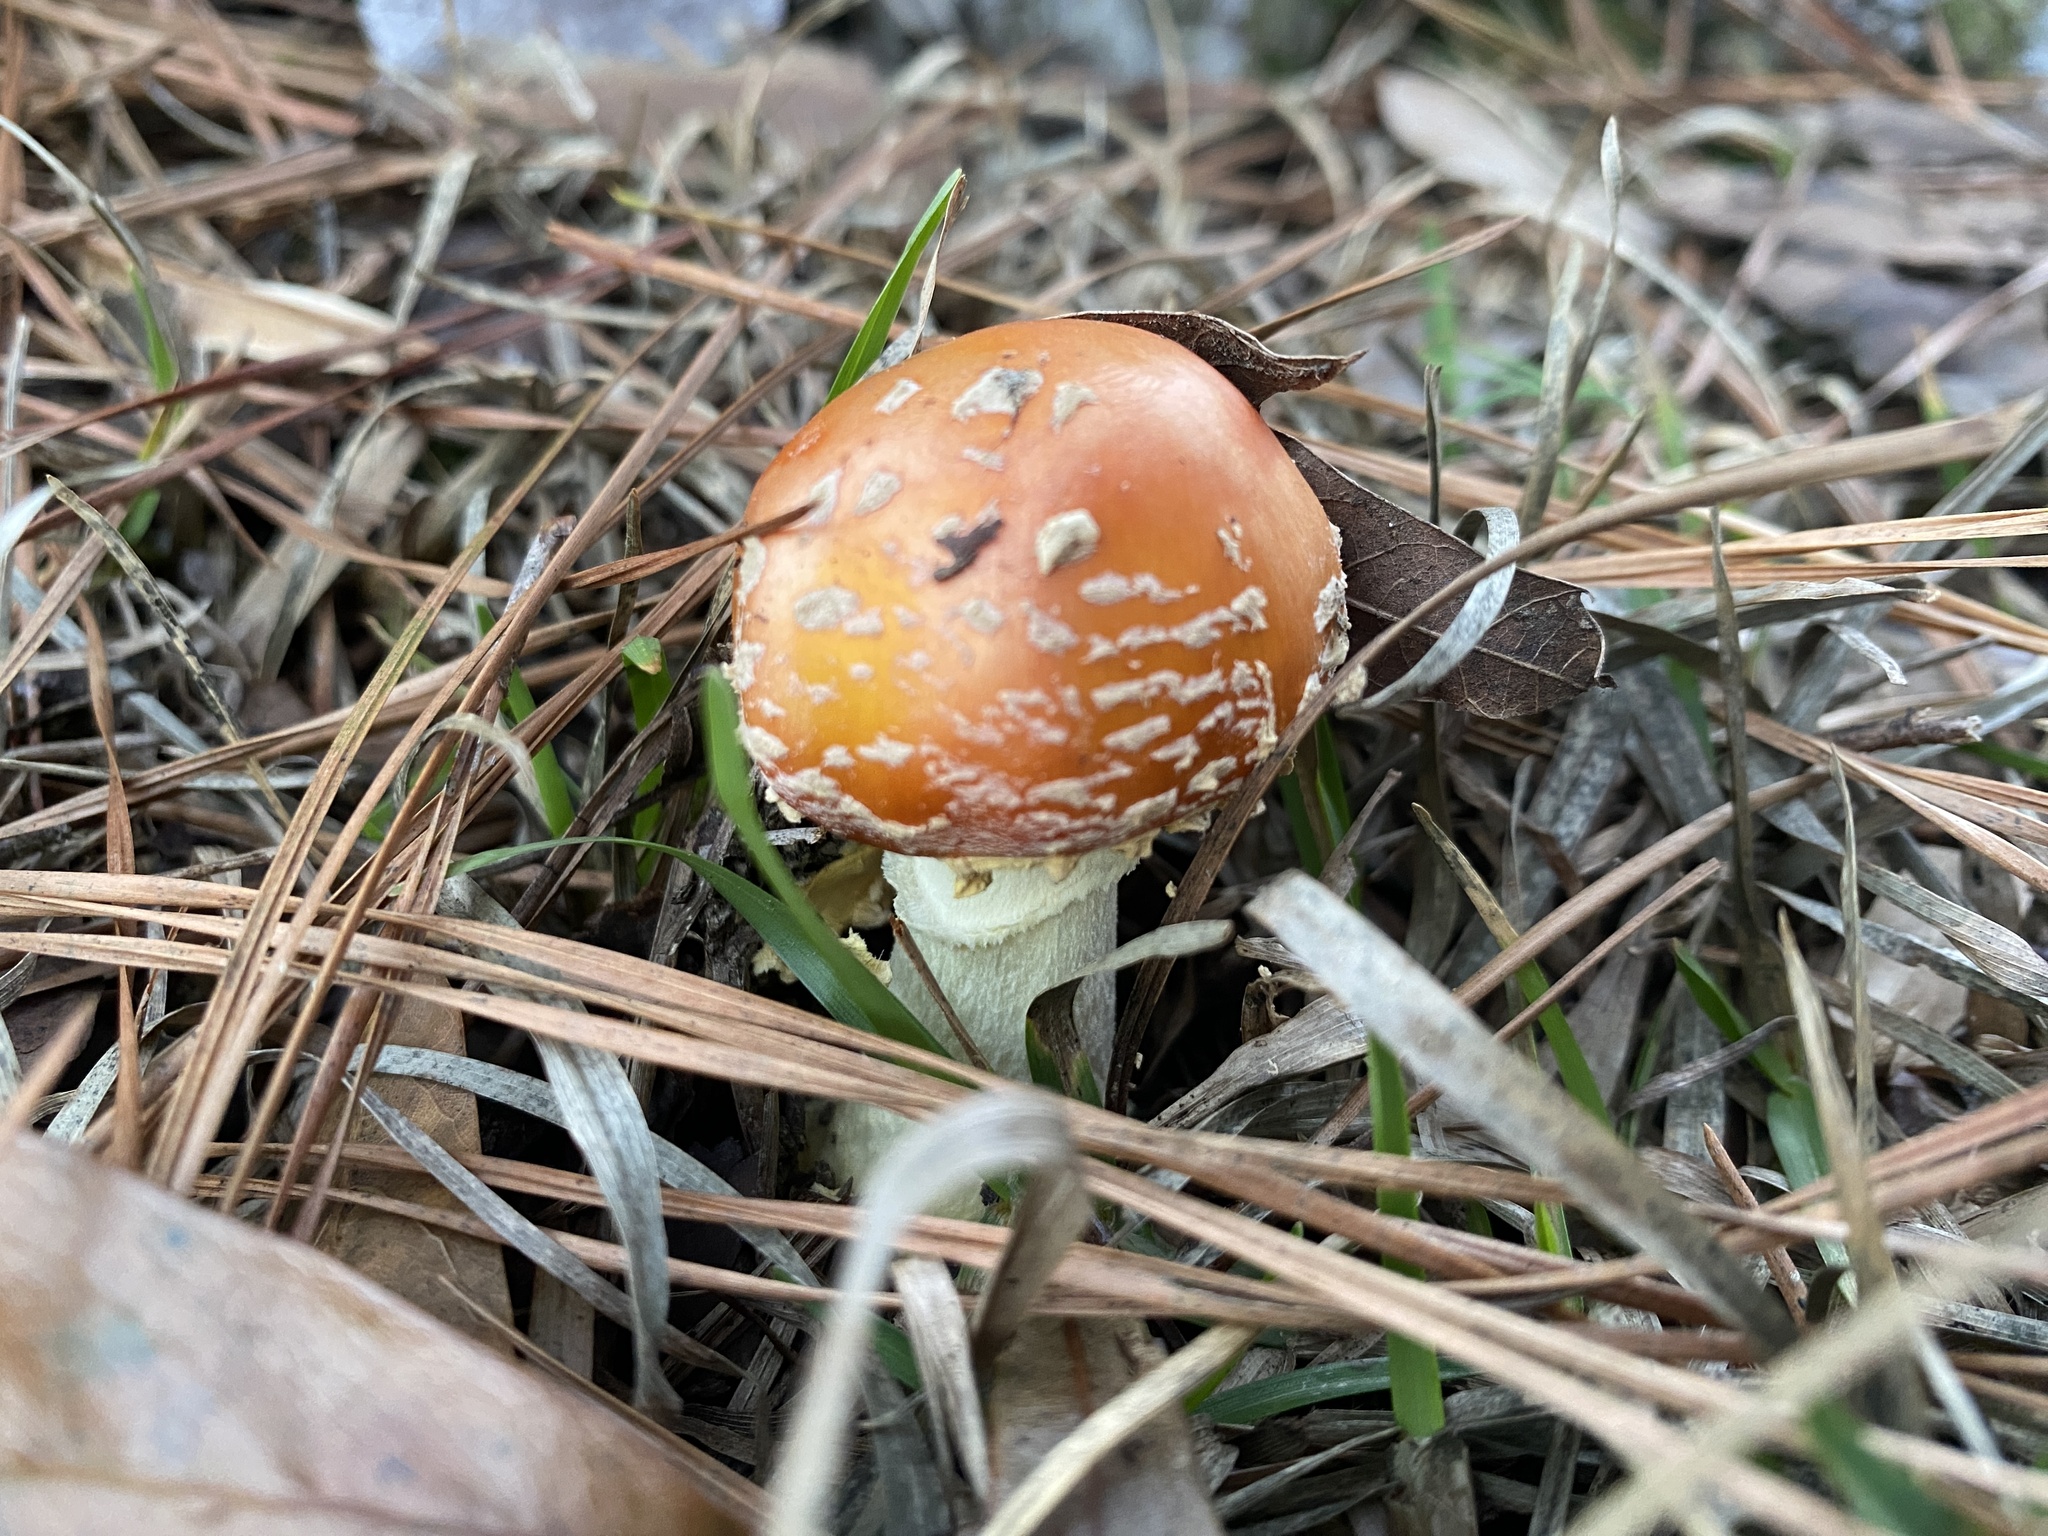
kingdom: Fungi
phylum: Basidiomycota
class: Agaricomycetes
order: Agaricales
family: Amanitaceae
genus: Amanita
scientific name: Amanita persicina
